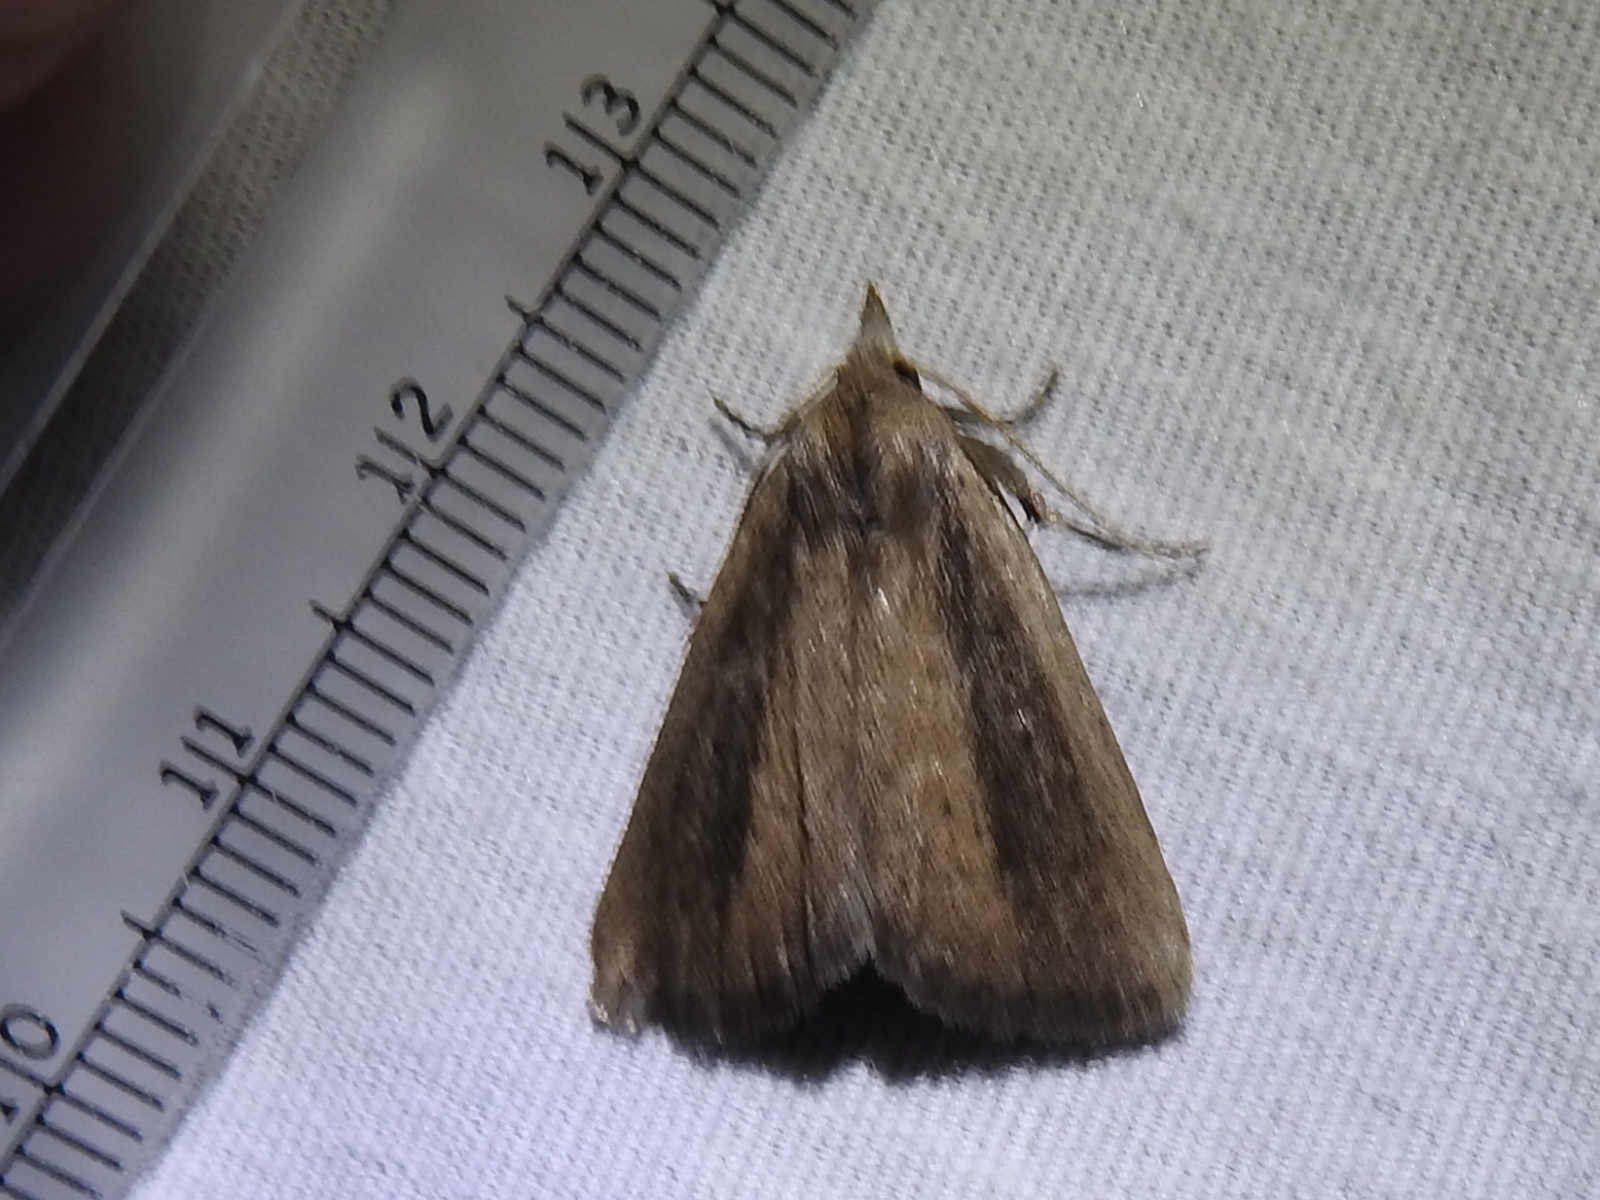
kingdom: Animalia
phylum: Arthropoda
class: Insecta
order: Lepidoptera
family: Erebidae
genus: Gabara
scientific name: Gabara stygialis
